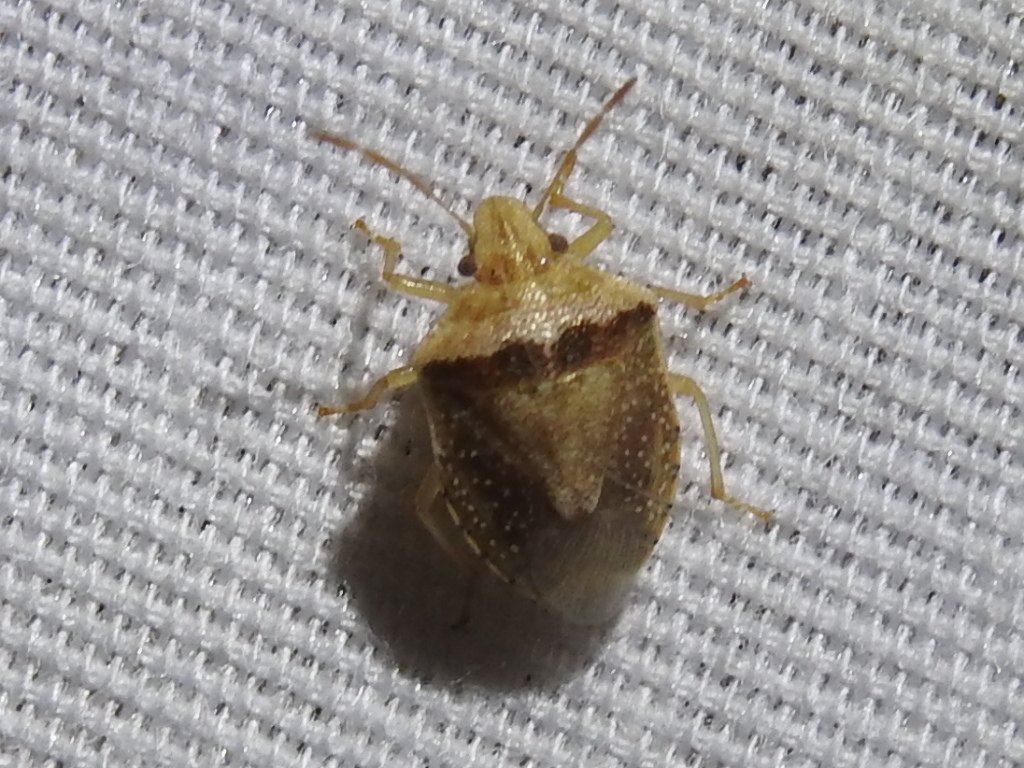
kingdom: Animalia
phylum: Arthropoda
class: Insecta
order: Hemiptera
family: Pentatomidae
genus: Cyptocephala
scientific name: Cyptocephala antiguensis
